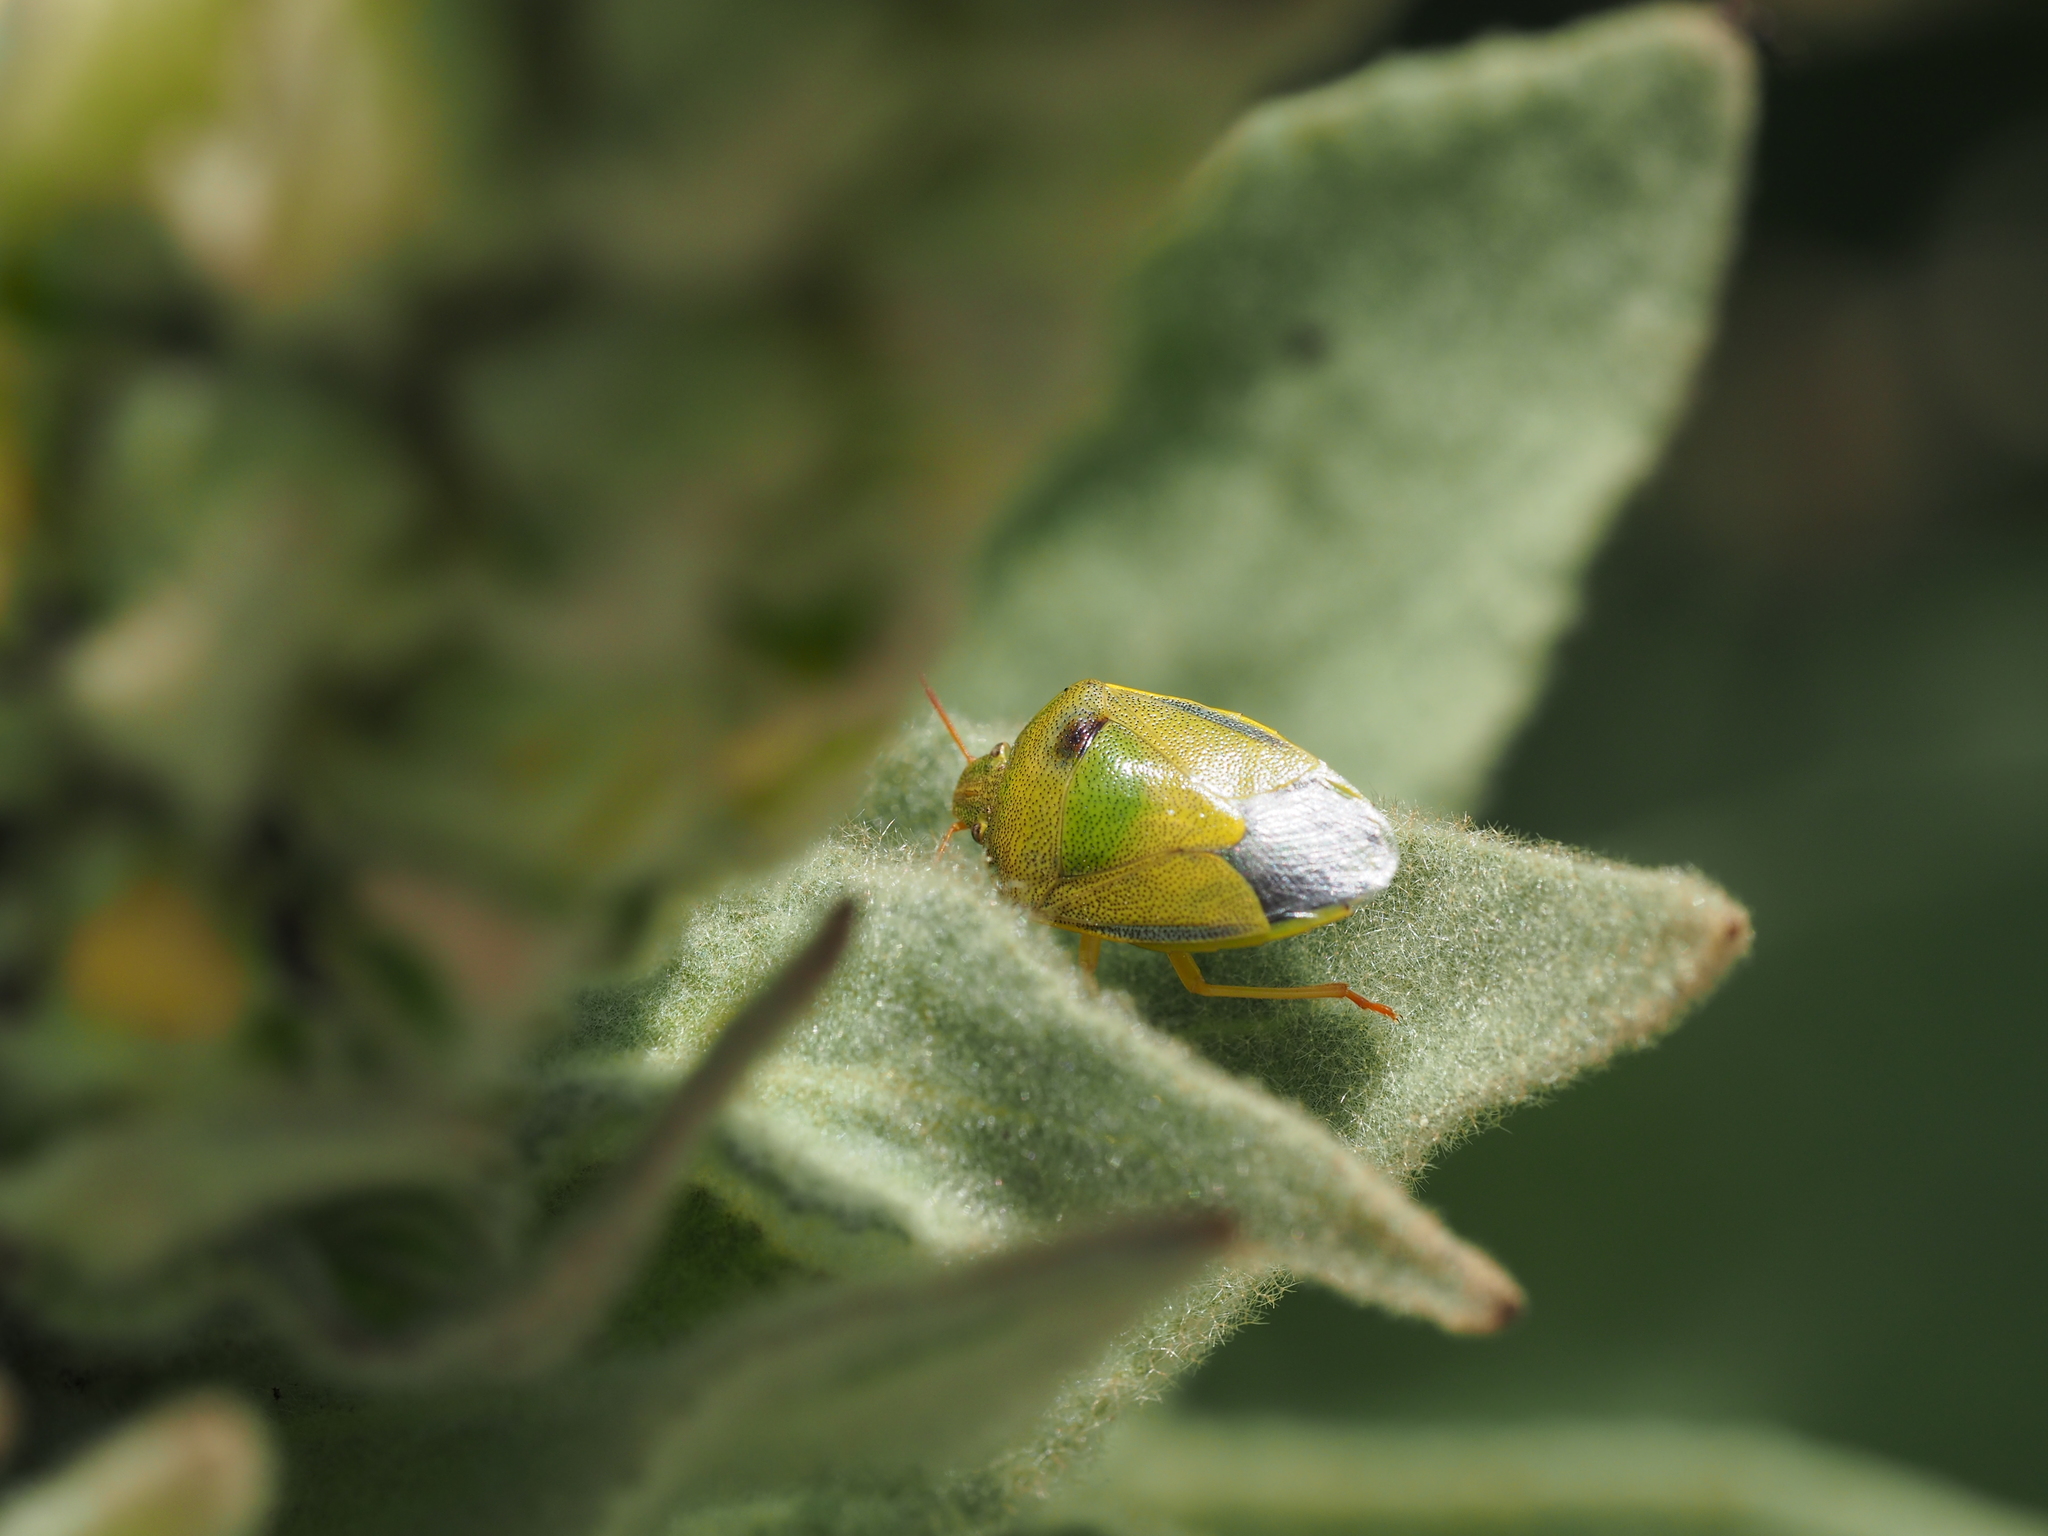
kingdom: Animalia
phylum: Arthropoda
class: Insecta
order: Hemiptera
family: Pentatomidae
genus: Piezodorus
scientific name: Piezodorus lituratus
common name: Stink bug
